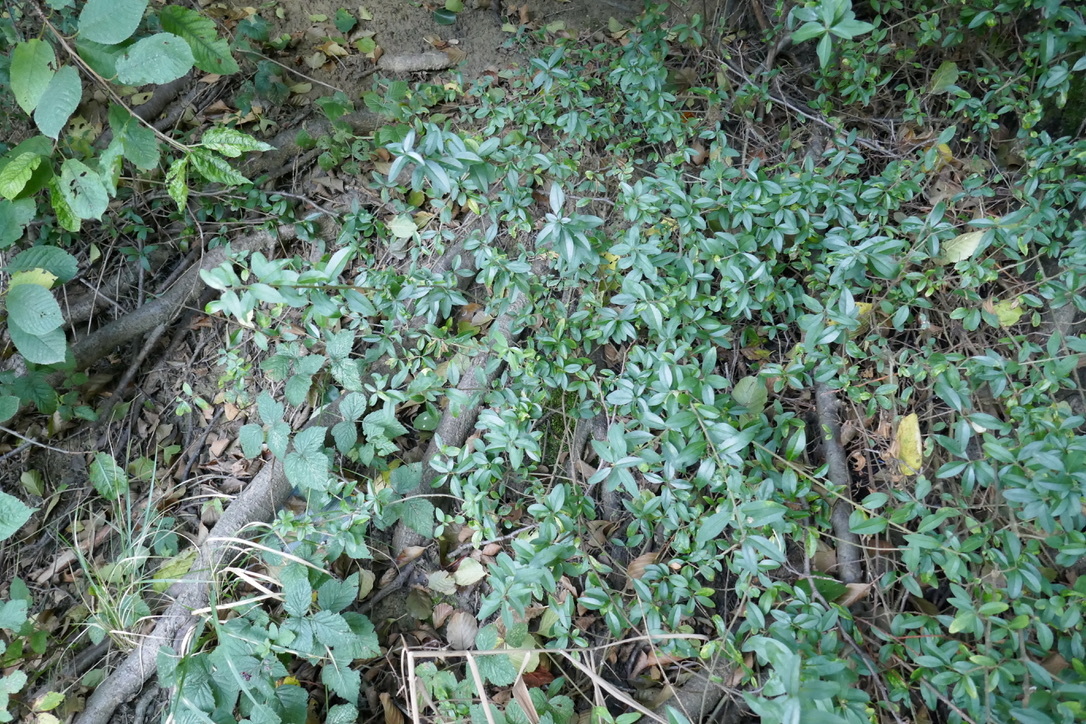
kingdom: Plantae
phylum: Tracheophyta
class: Magnoliopsida
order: Lamiales
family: Oleaceae
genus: Ligustrum
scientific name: Ligustrum vulgare
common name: Wild privet
